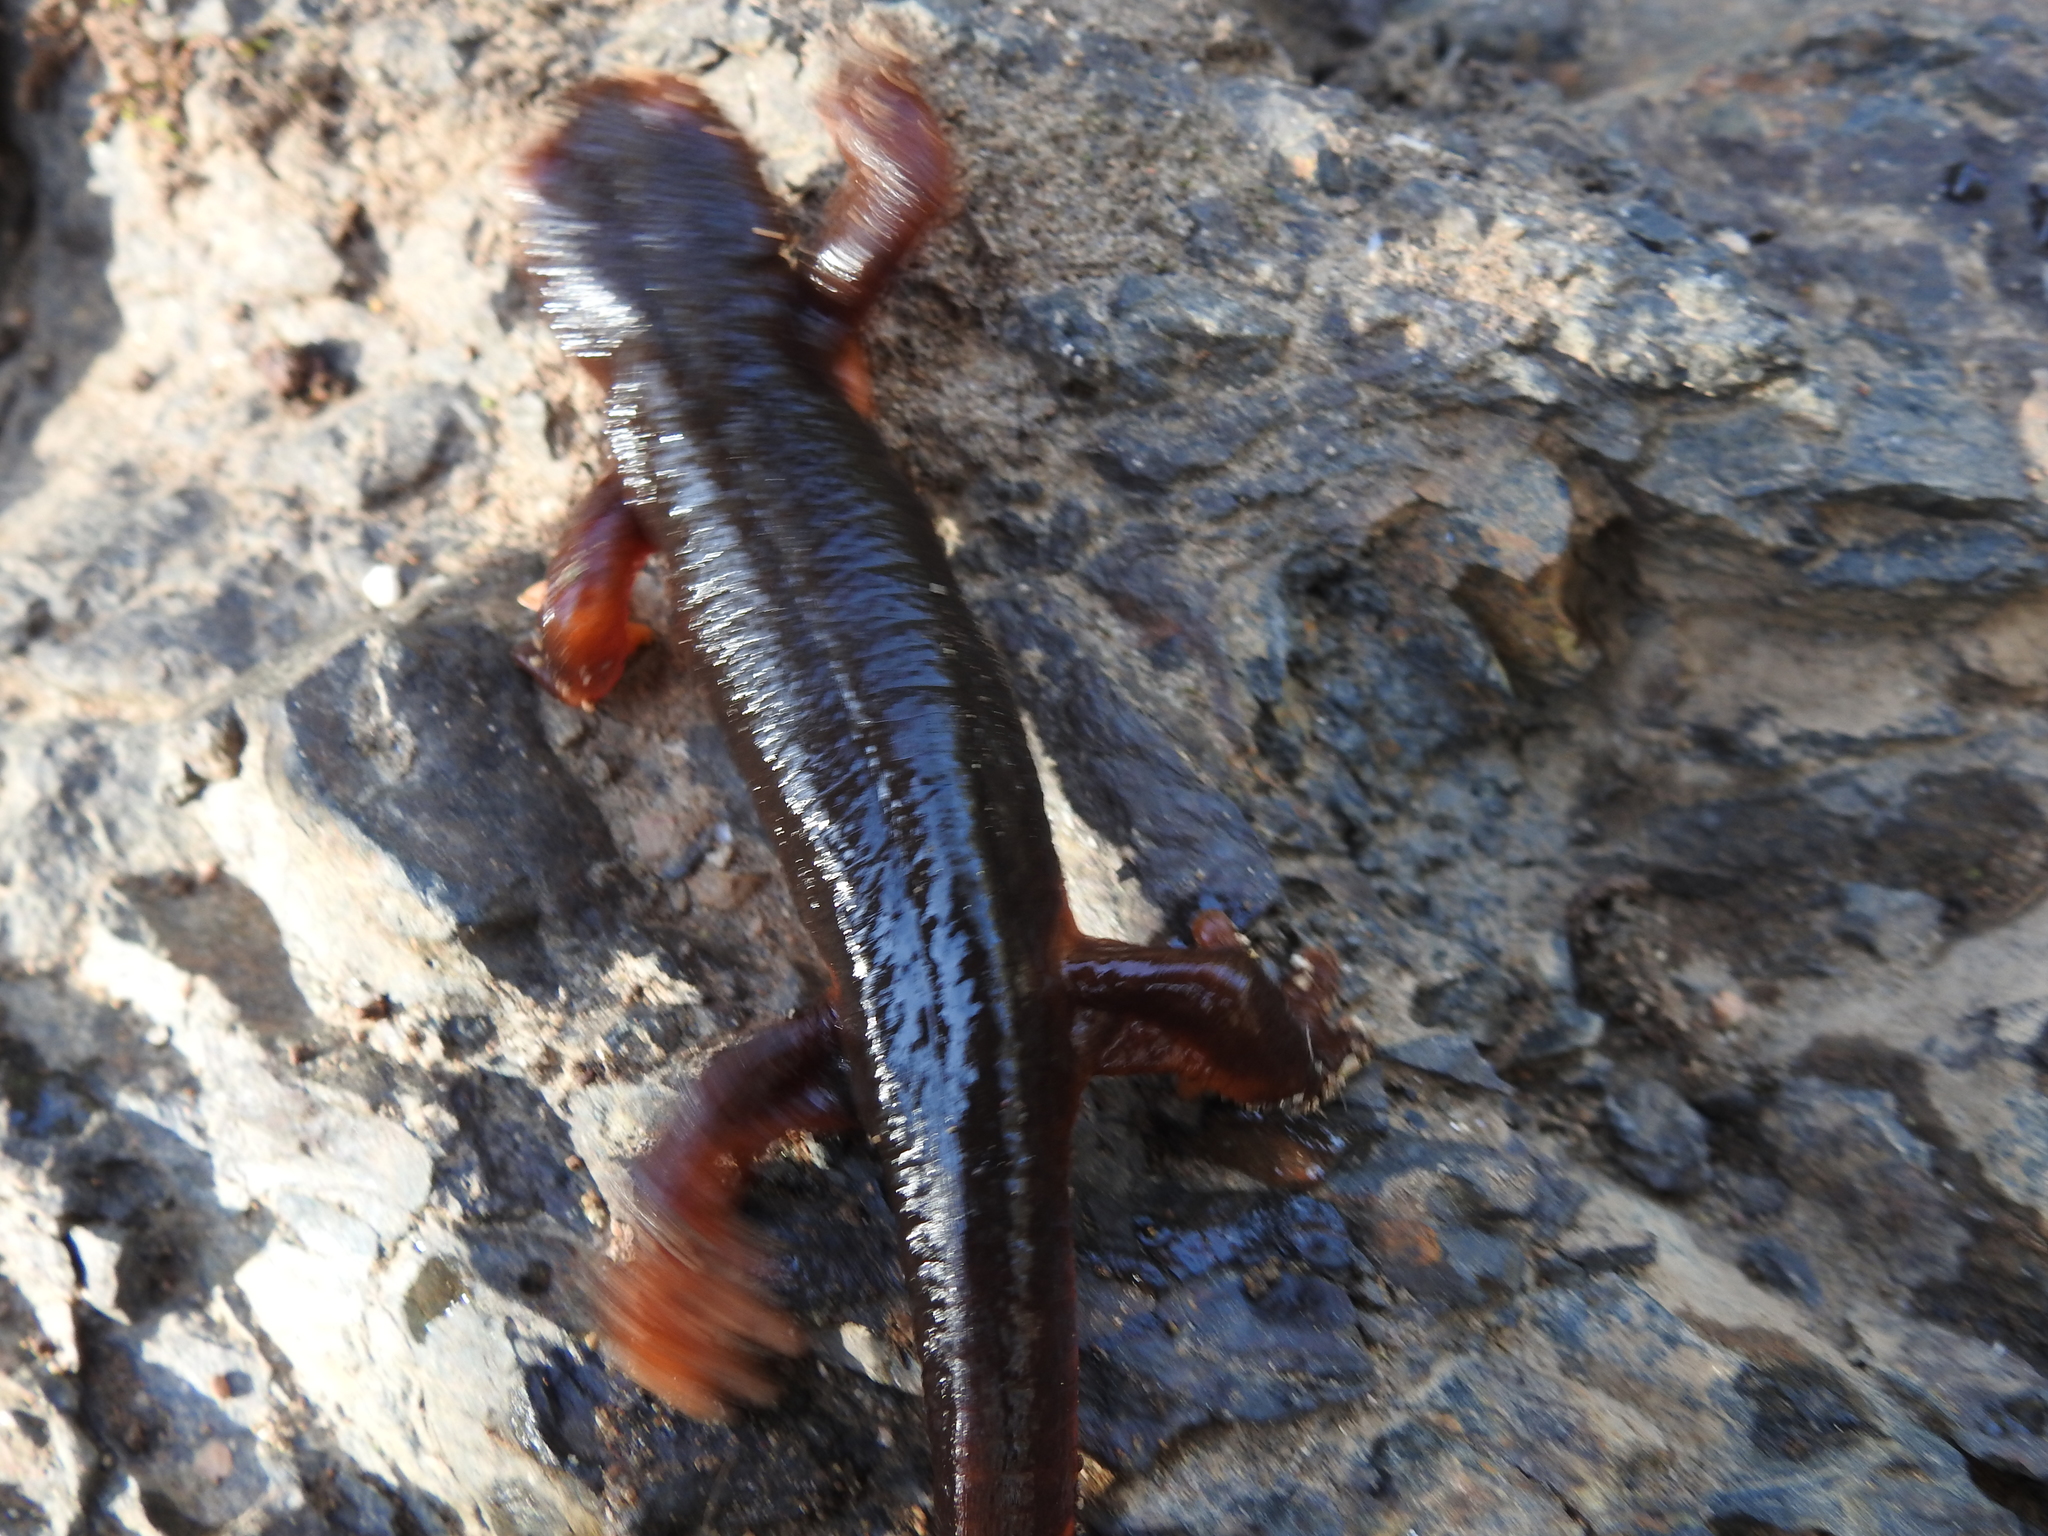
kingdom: Animalia
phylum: Chordata
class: Amphibia
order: Caudata
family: Salamandridae
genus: Taricha
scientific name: Taricha sierrae
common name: Sierra newt
